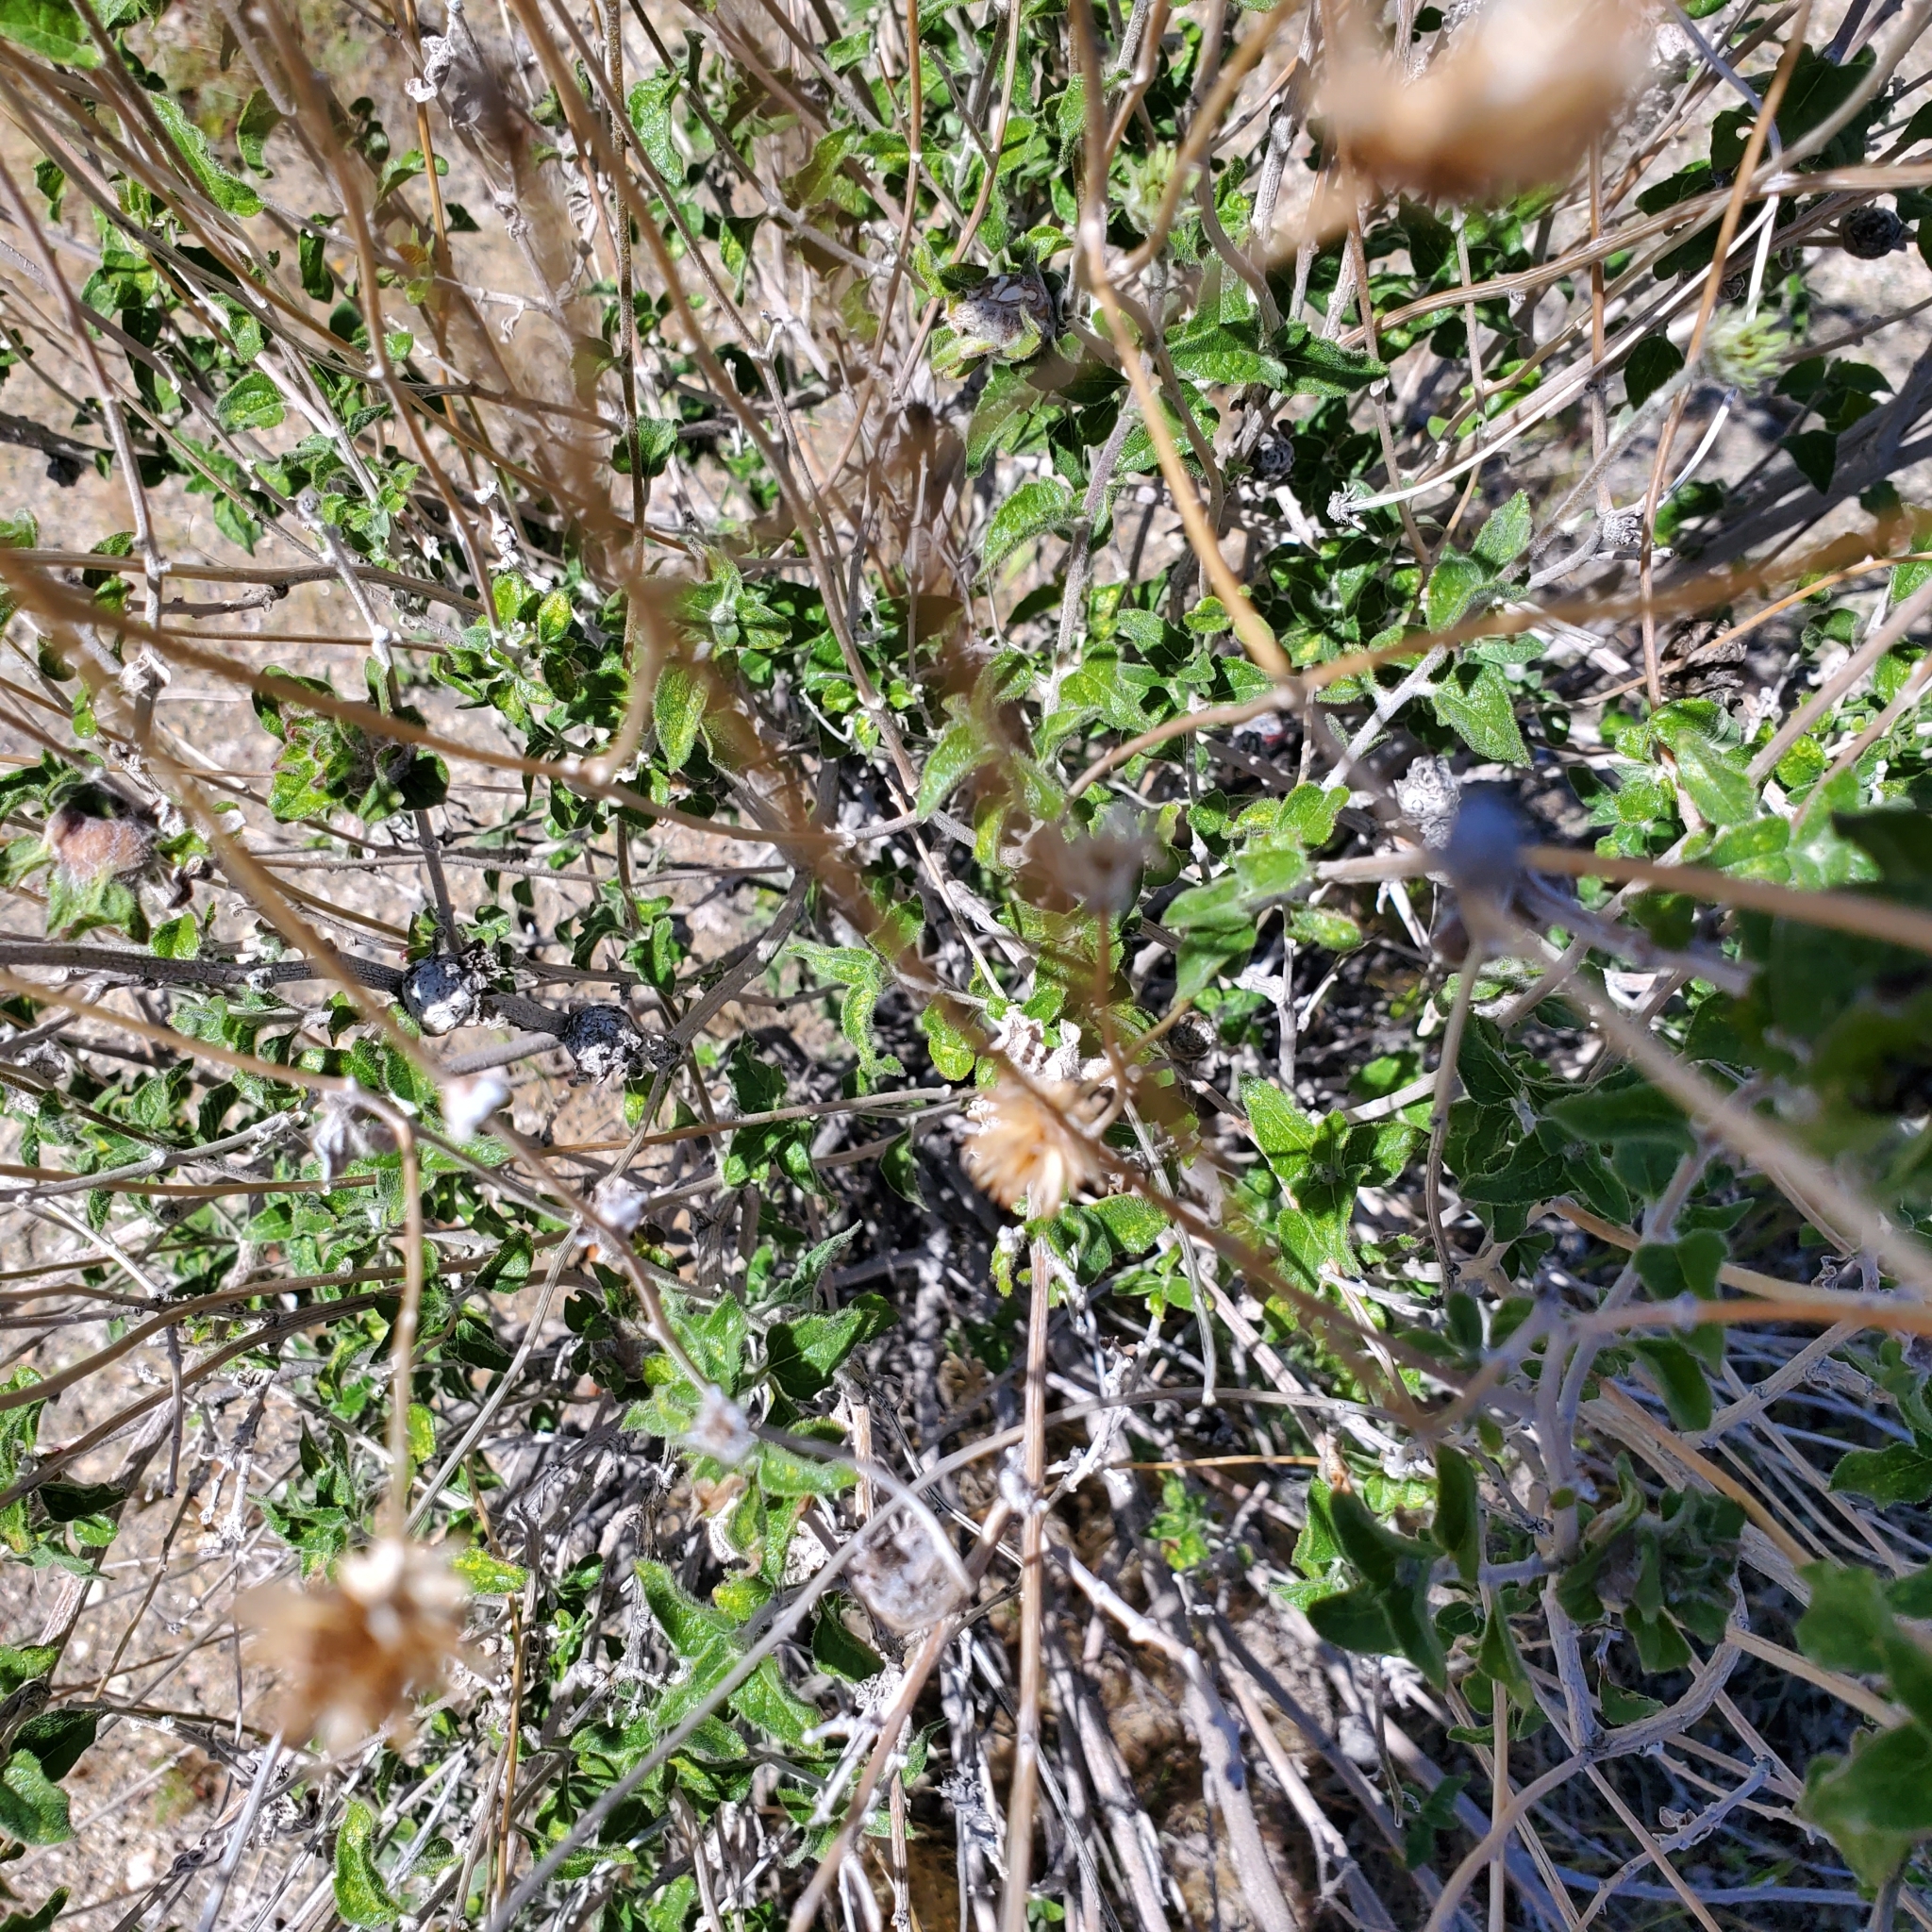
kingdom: Plantae
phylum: Tracheophyta
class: Magnoliopsida
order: Asterales
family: Asteraceae
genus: Bahiopsis
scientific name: Bahiopsis parishii
